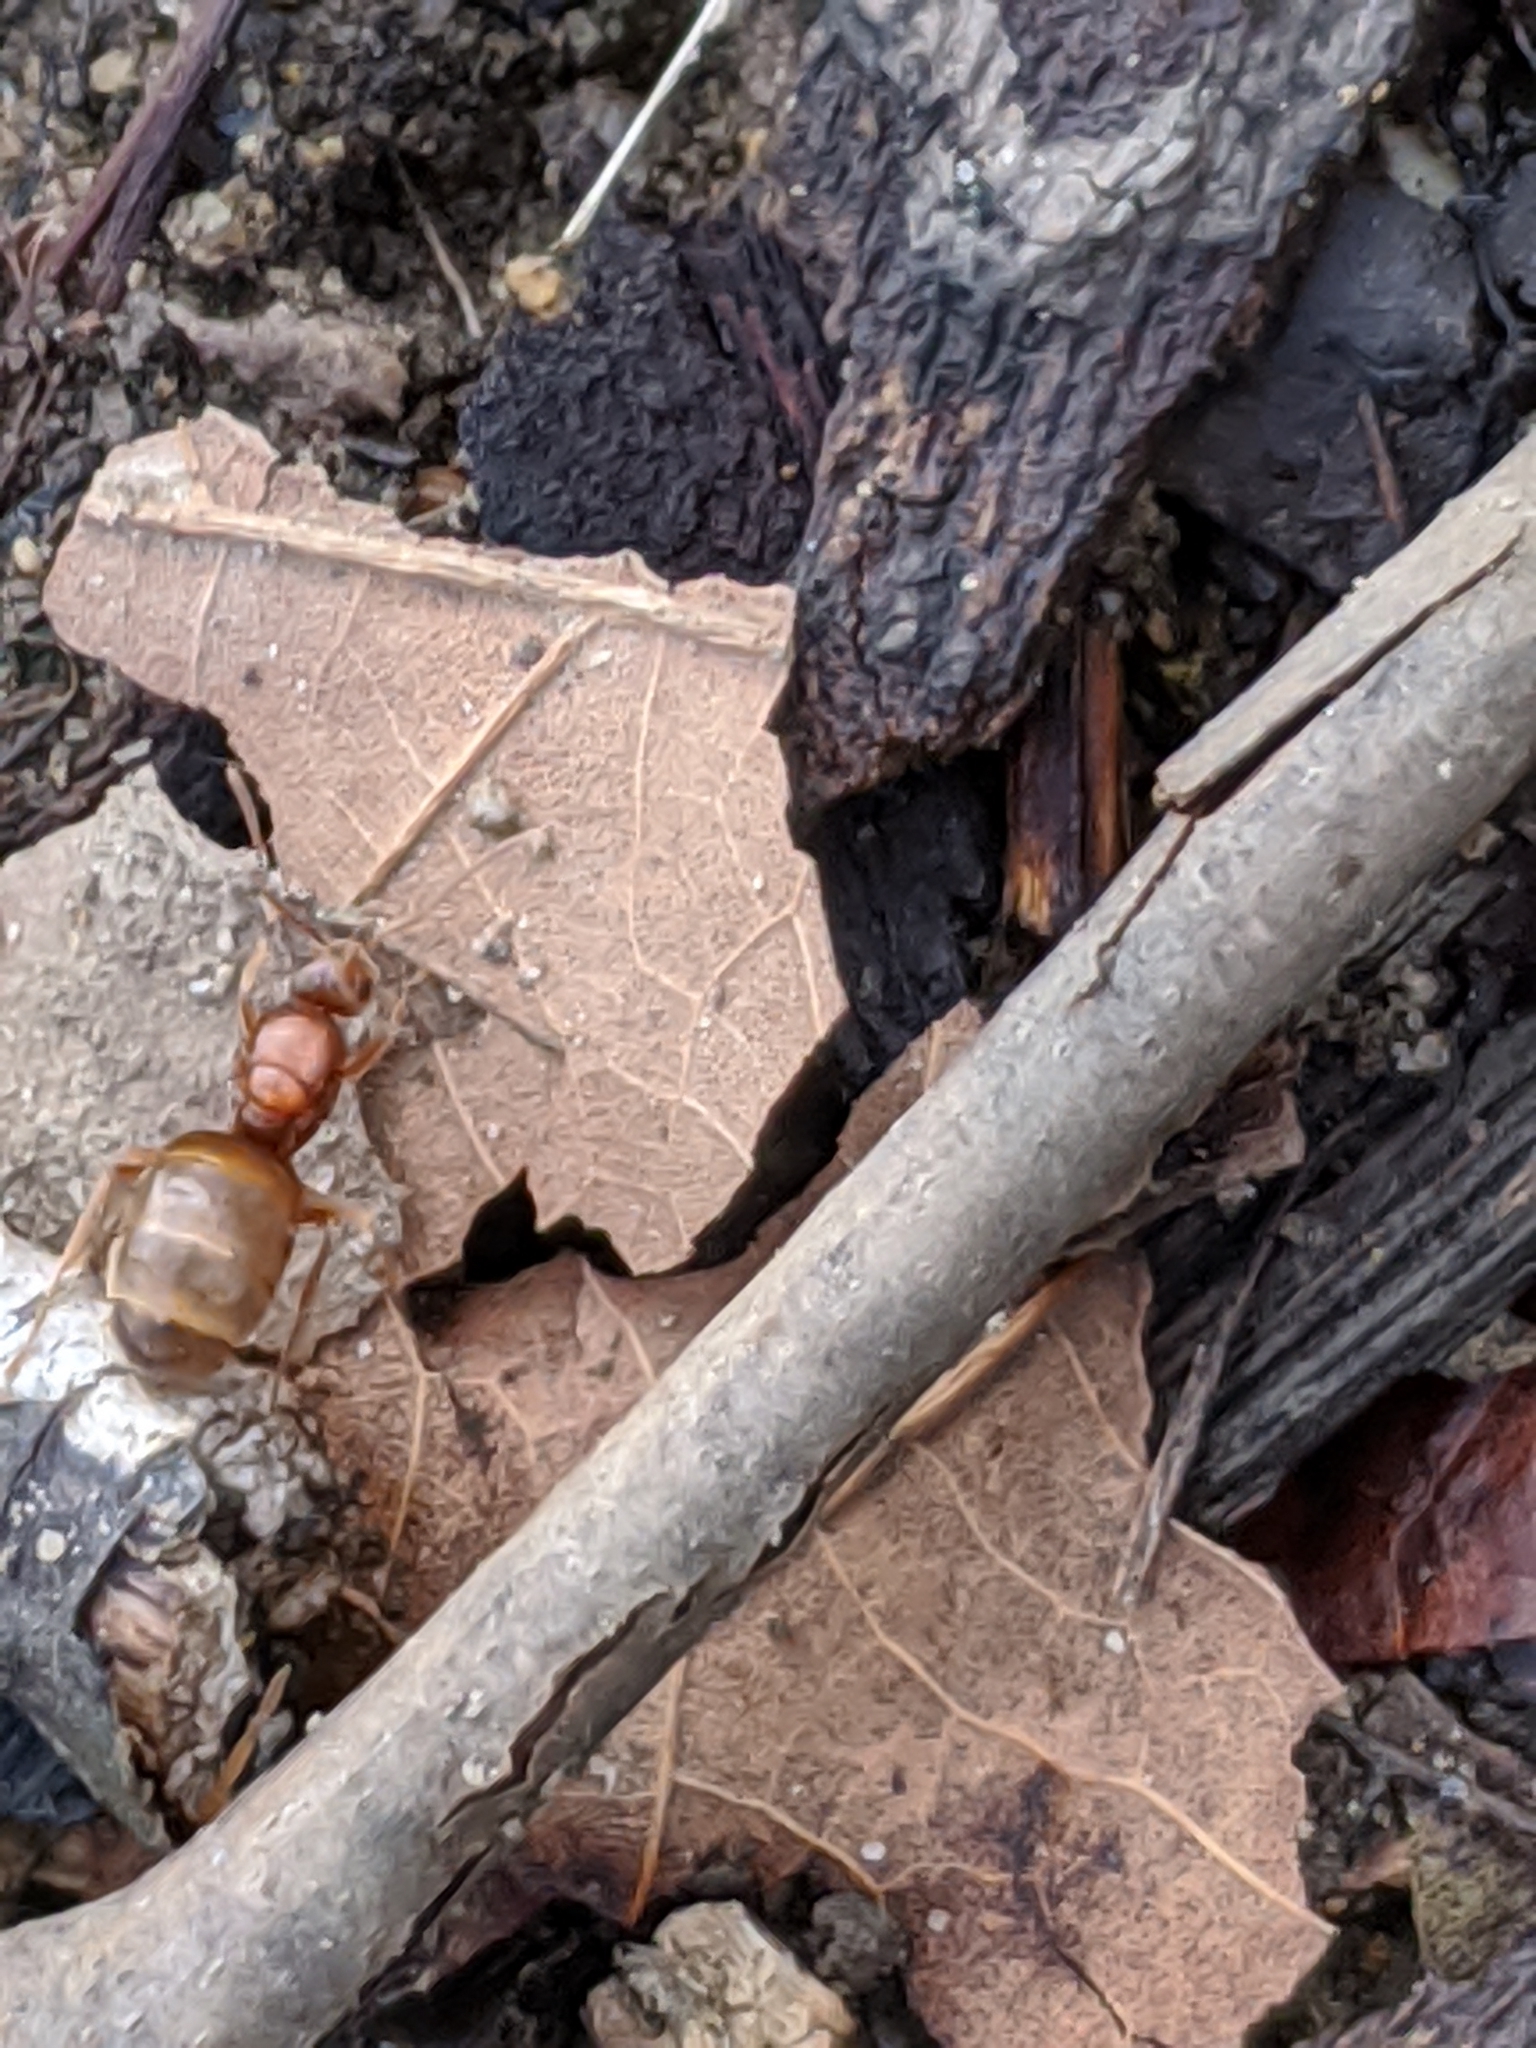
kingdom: Animalia
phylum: Arthropoda
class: Insecta
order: Hymenoptera
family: Formicidae
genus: Prenolepis
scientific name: Prenolepis imparis
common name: Small honey ant
